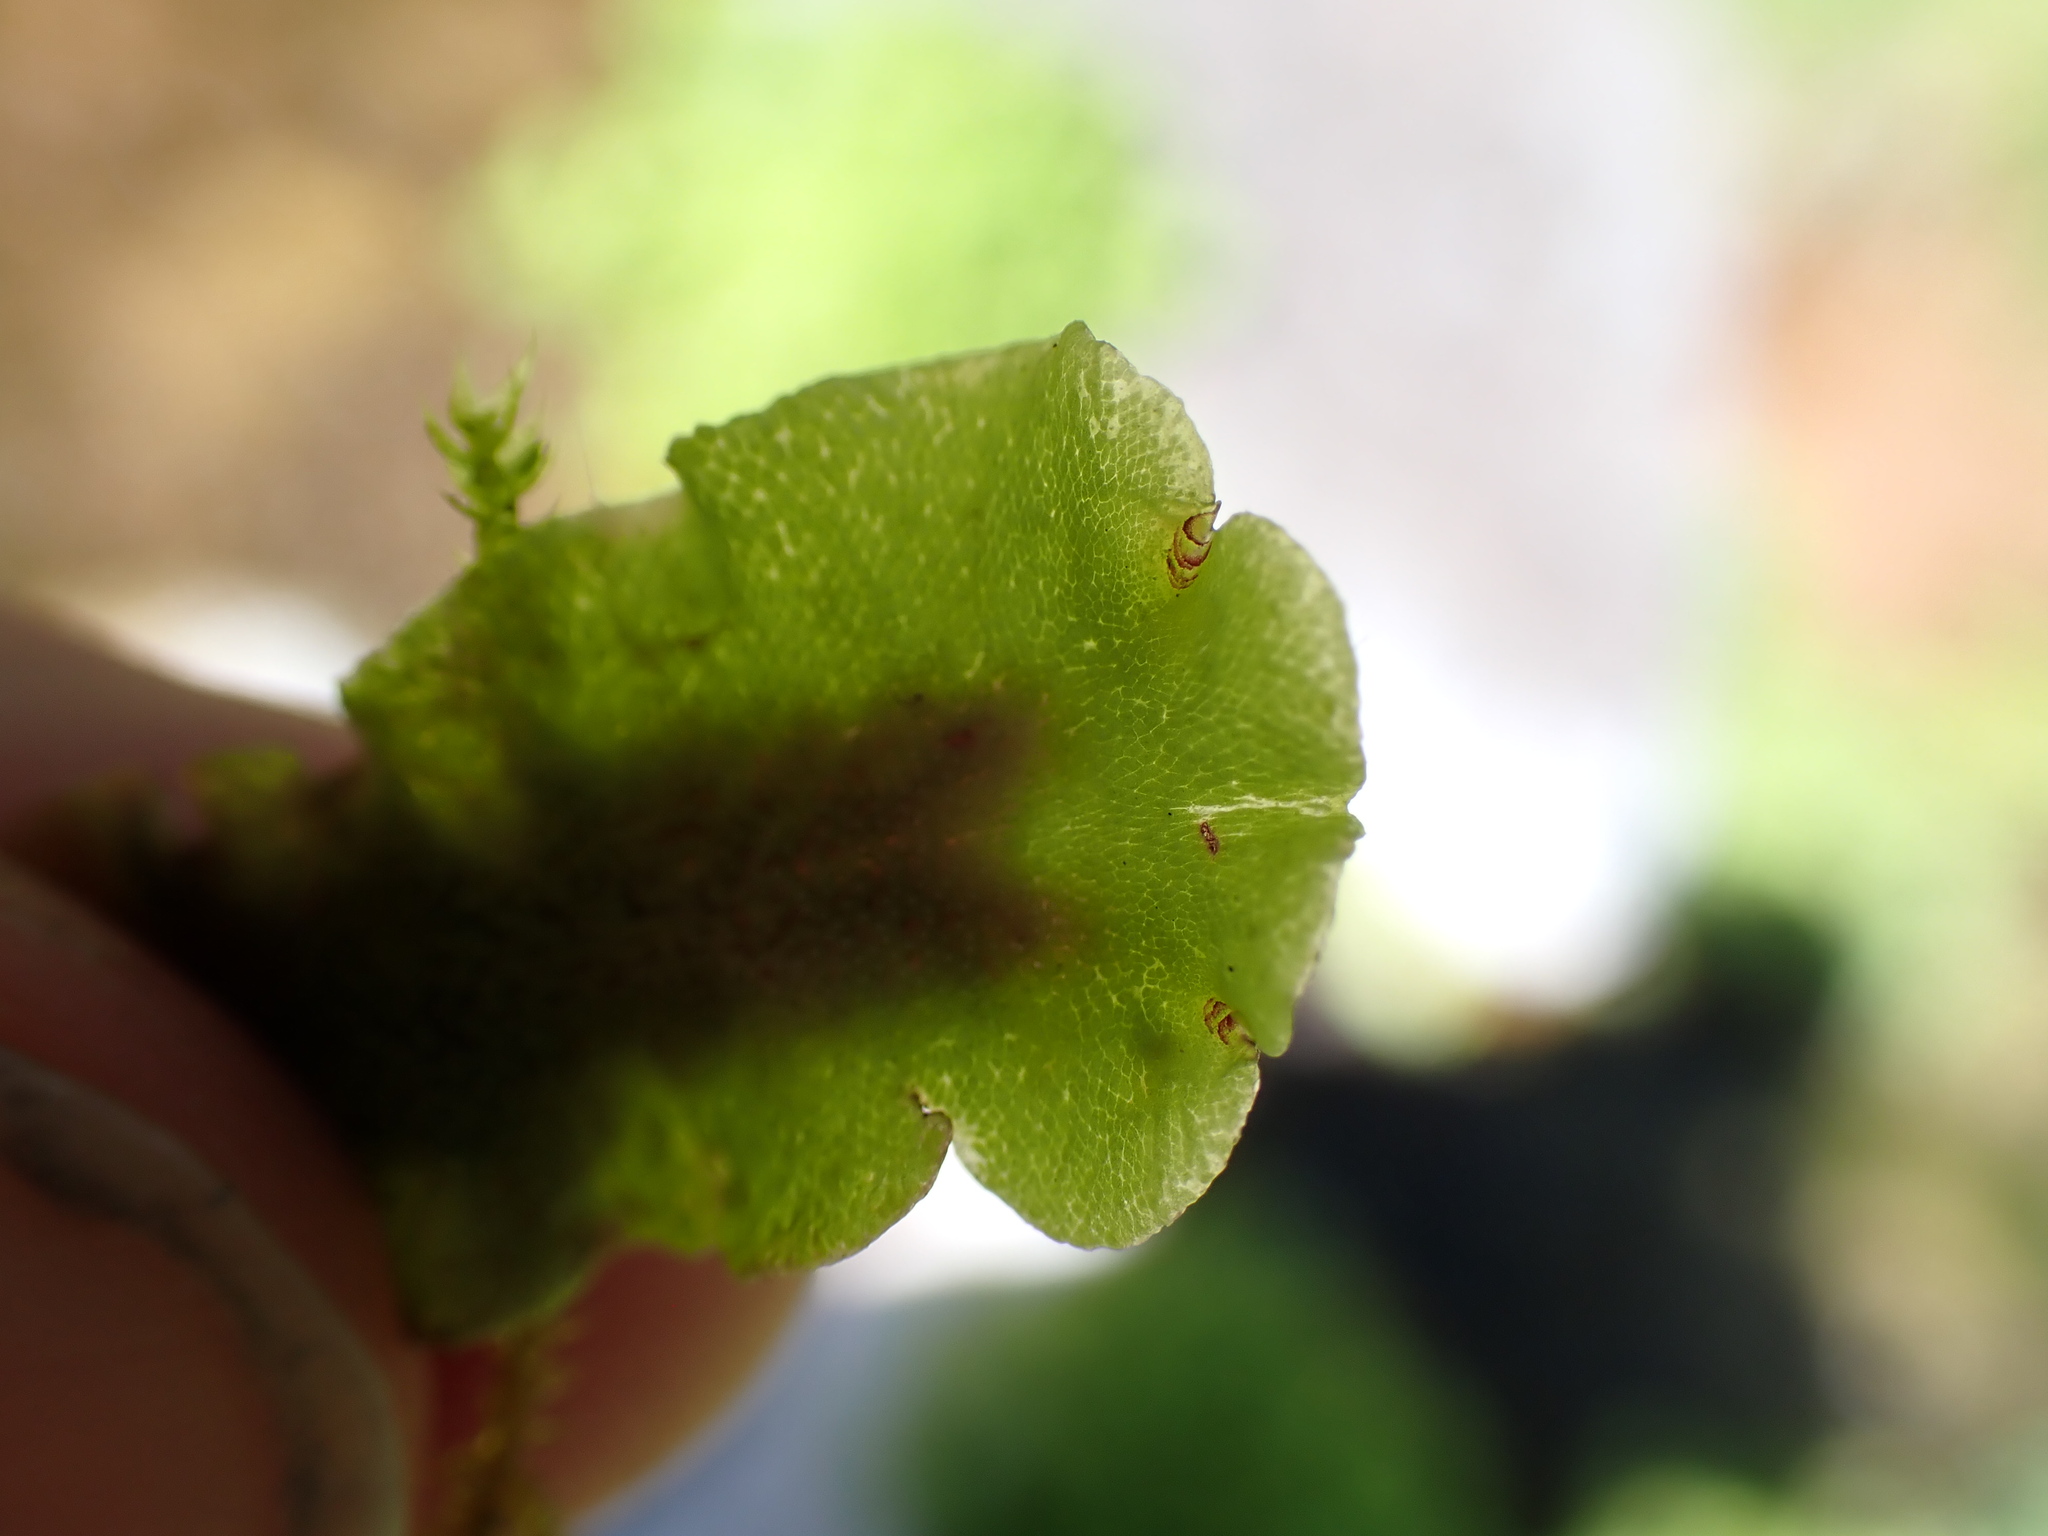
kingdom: Plantae
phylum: Marchantiophyta
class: Marchantiopsida
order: Marchantiales
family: Marchantiaceae
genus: Marchantia
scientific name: Marchantia polymorpha
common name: Common liverwort
